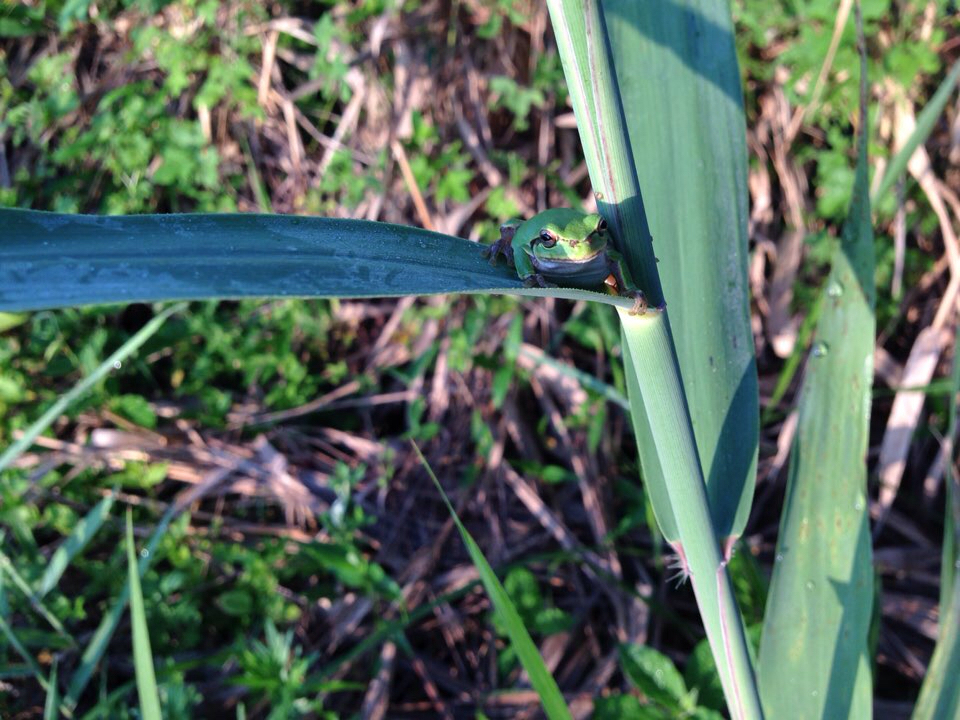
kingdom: Animalia
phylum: Chordata
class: Amphibia
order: Anura
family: Hylidae
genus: Dryophytes
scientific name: Dryophytes japonicus
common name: Japanese treefrog
